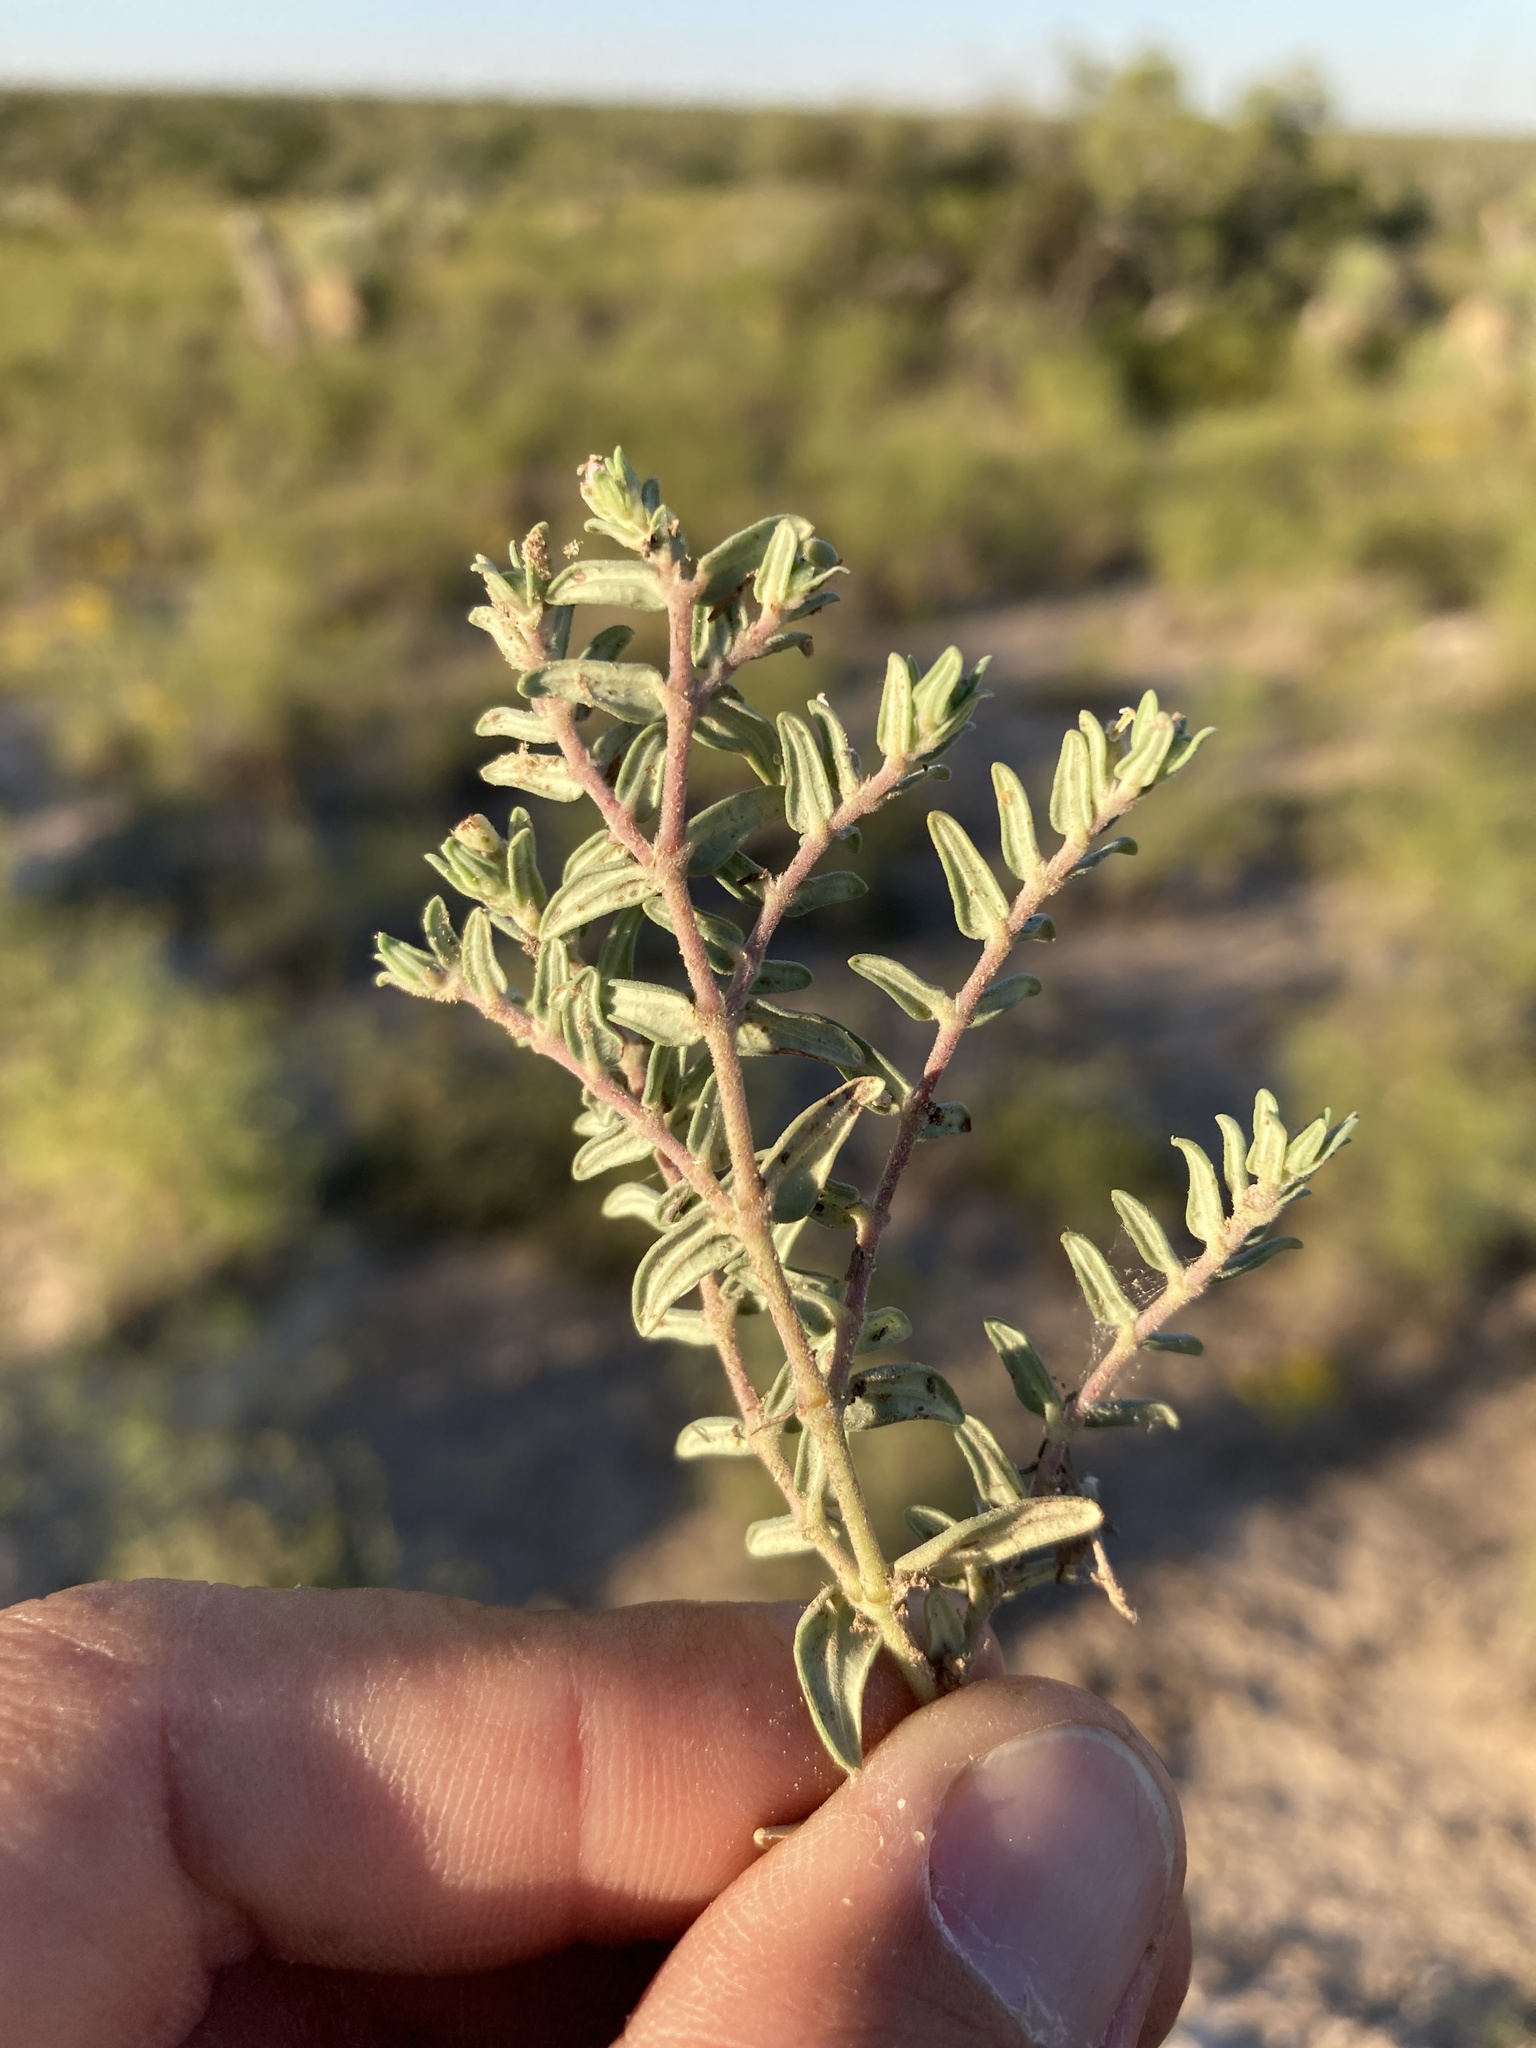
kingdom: Plantae
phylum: Tracheophyta
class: Magnoliopsida
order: Malpighiales
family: Euphorbiaceae
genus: Euphorbia
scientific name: Euphorbia lata
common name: Hoary euphorbia
